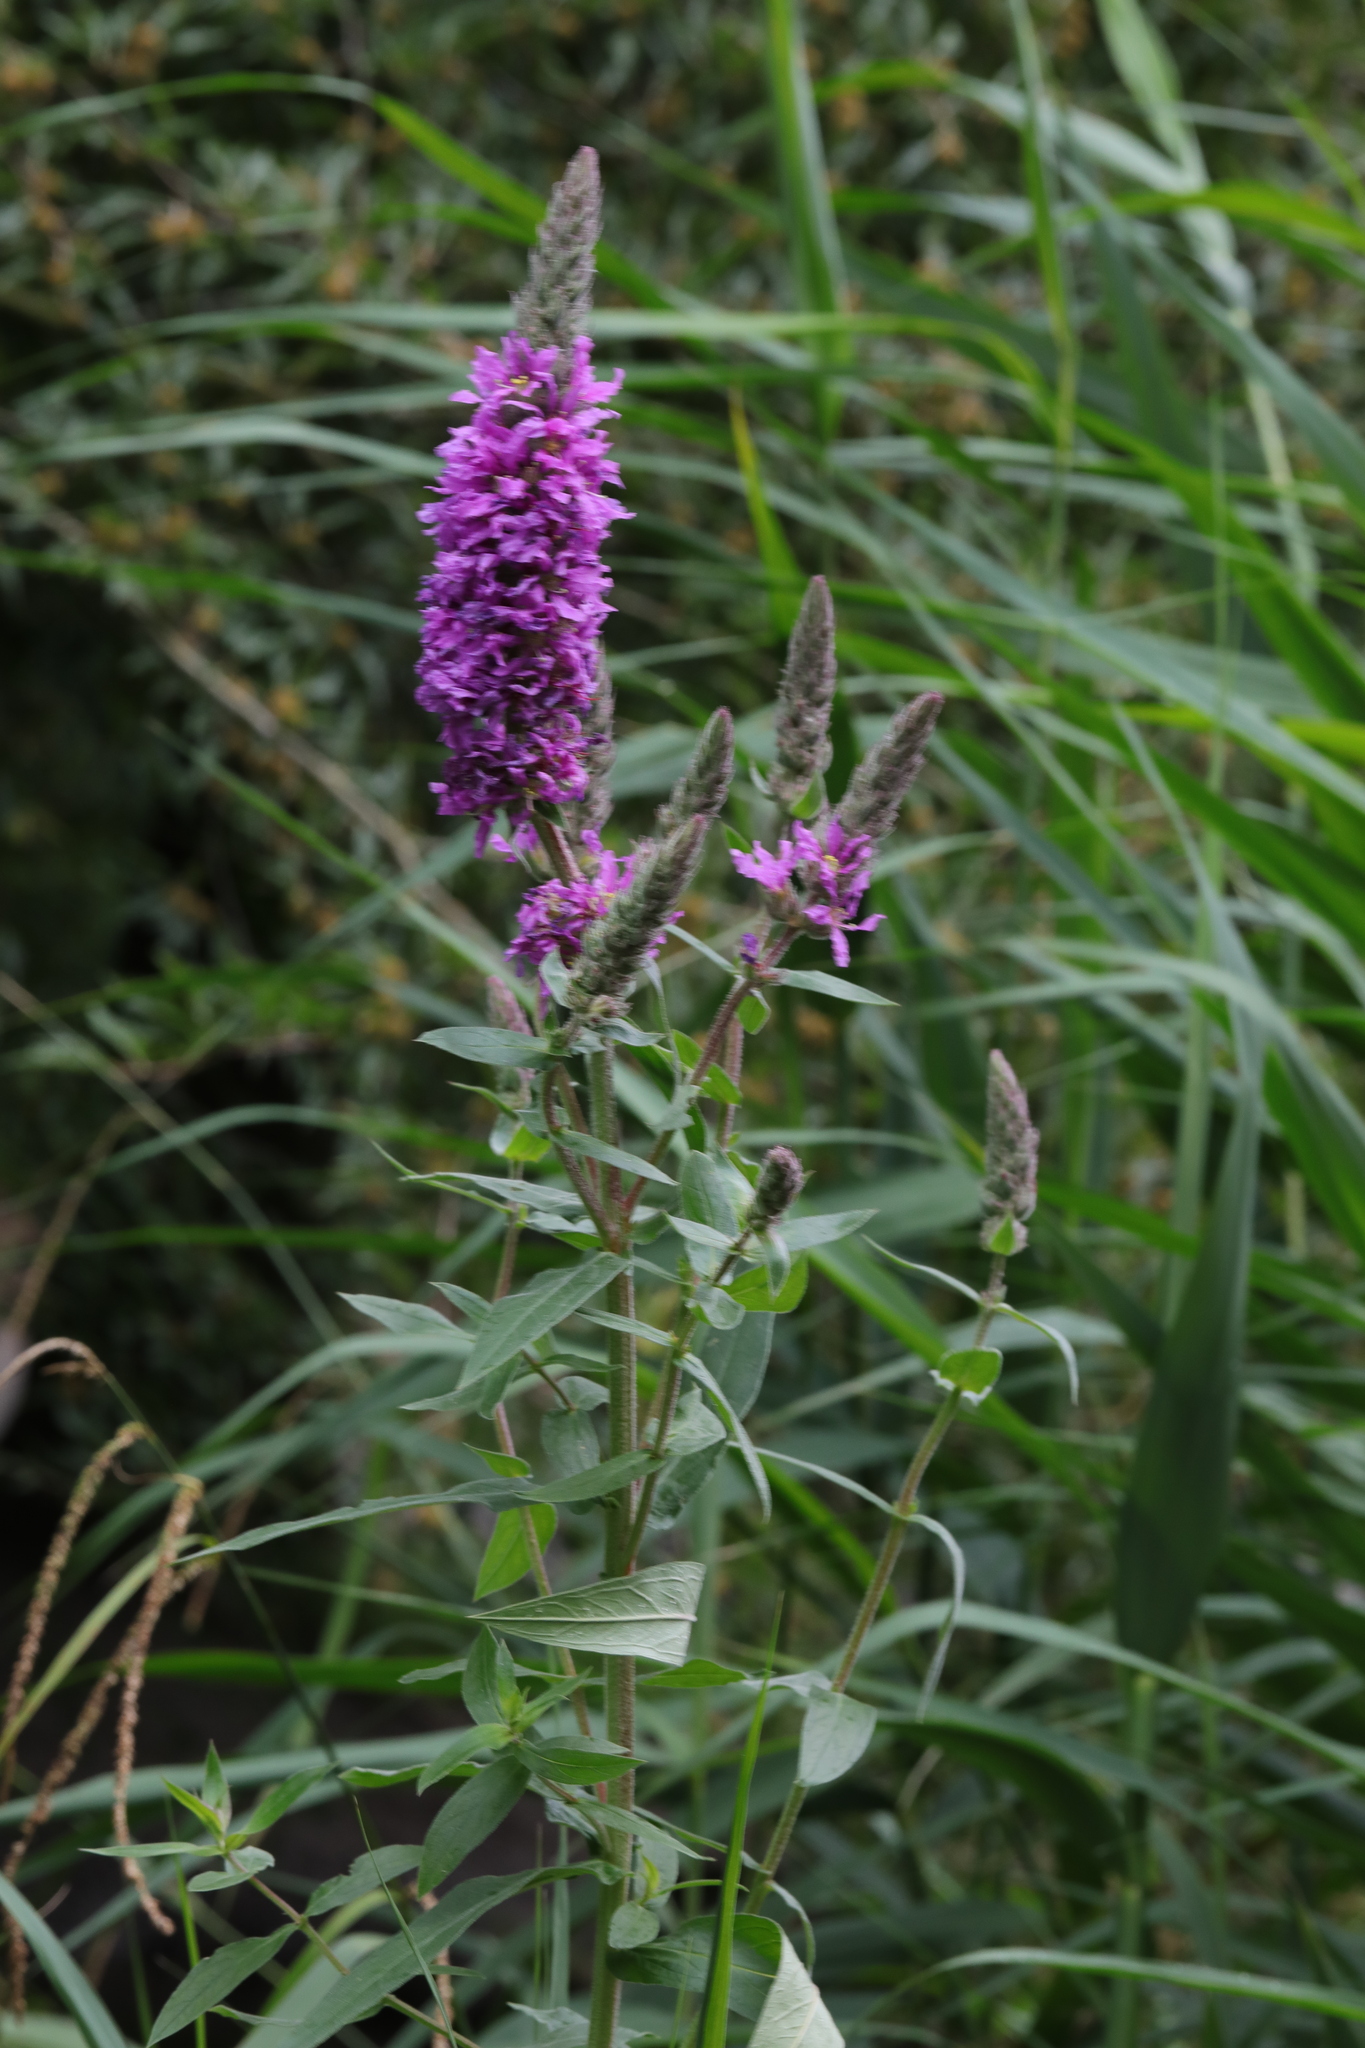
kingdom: Plantae
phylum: Tracheophyta
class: Magnoliopsida
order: Myrtales
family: Lythraceae
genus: Lythrum
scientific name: Lythrum salicaria
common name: Purple loosestrife
